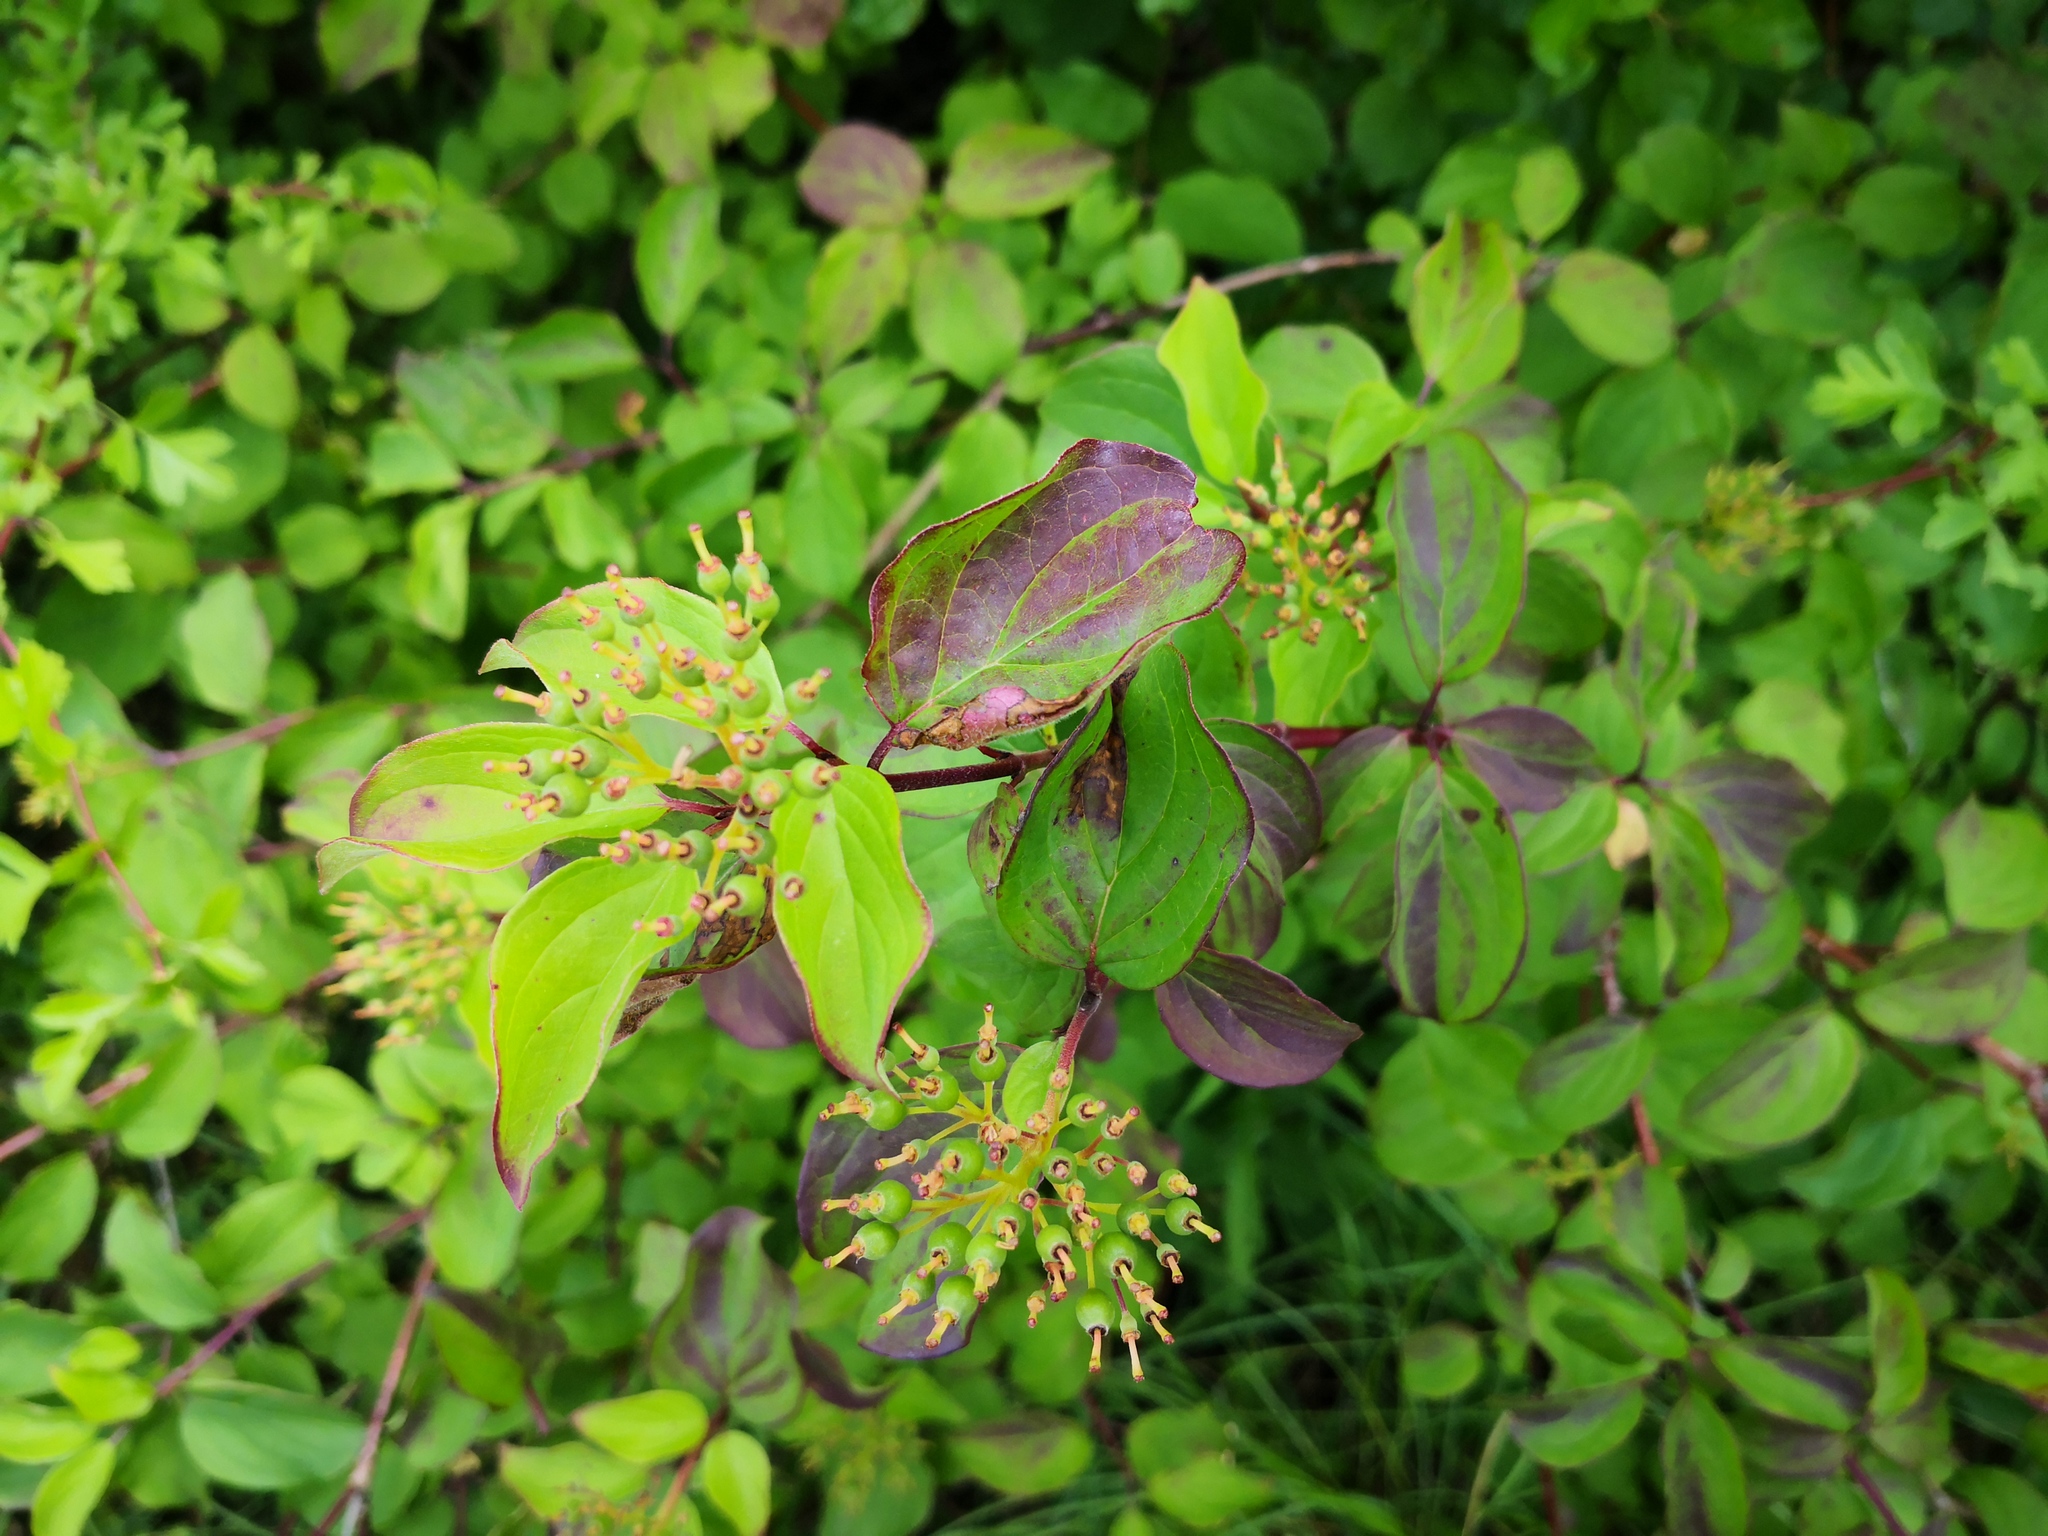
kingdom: Plantae
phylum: Tracheophyta
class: Magnoliopsida
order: Cornales
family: Cornaceae
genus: Cornus
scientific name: Cornus sanguinea
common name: Dogwood
